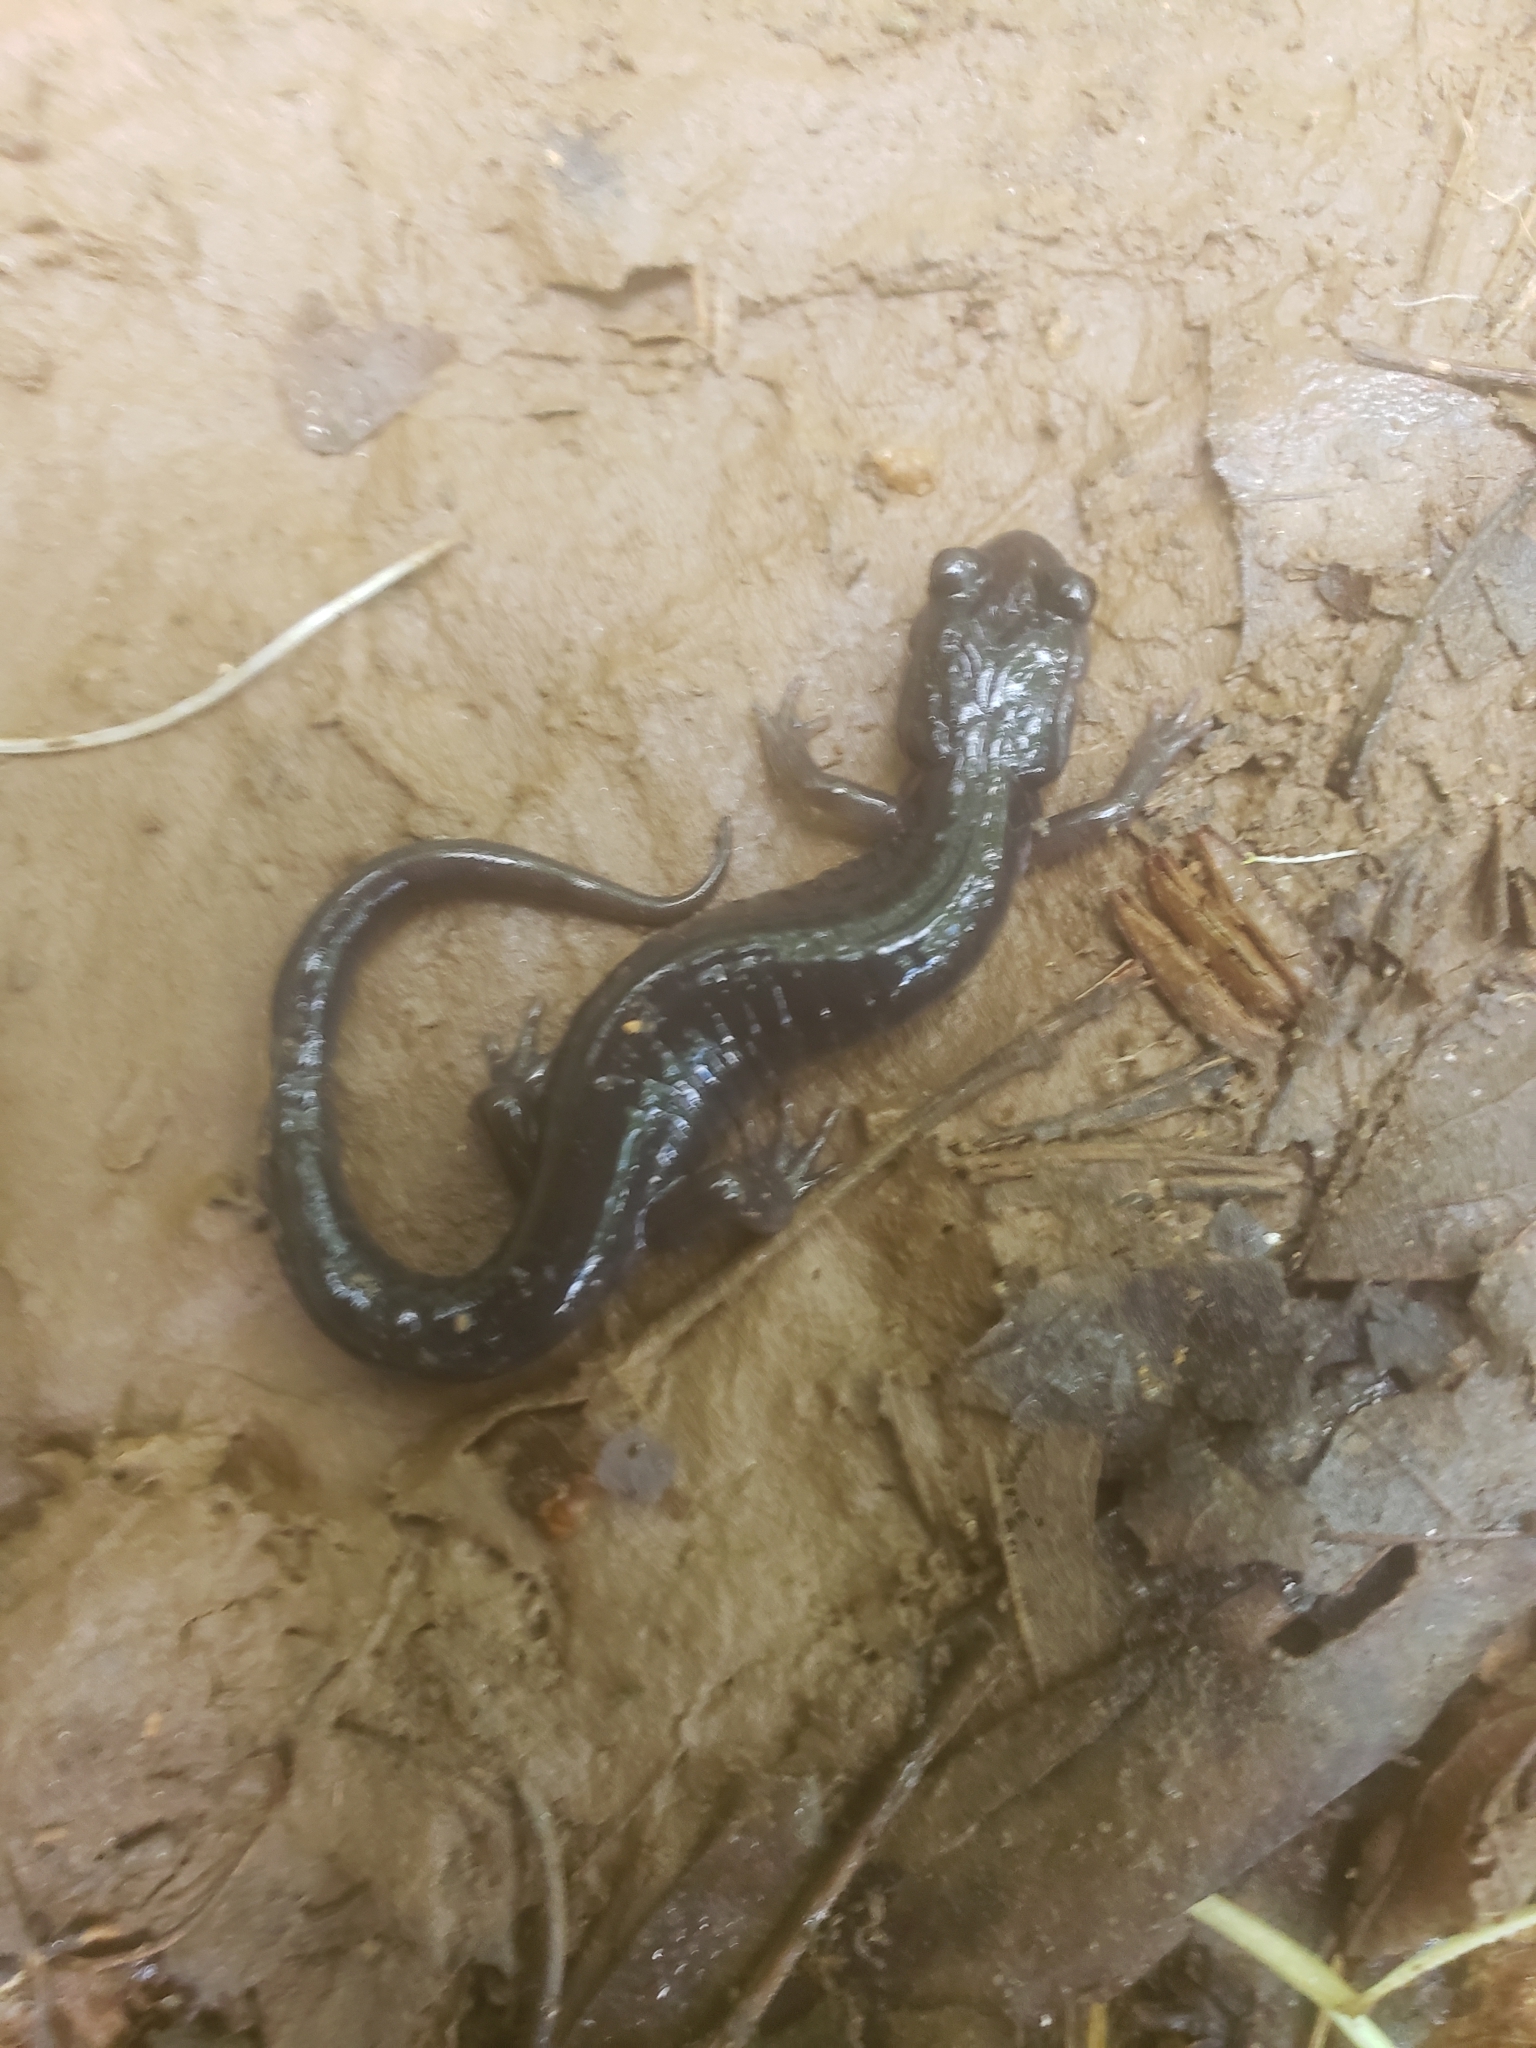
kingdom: Animalia
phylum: Chordata
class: Amphibia
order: Caudata
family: Plethodontidae
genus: Plethodon
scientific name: Plethodon metcalfi
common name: Southern gray-cheeked salamander
